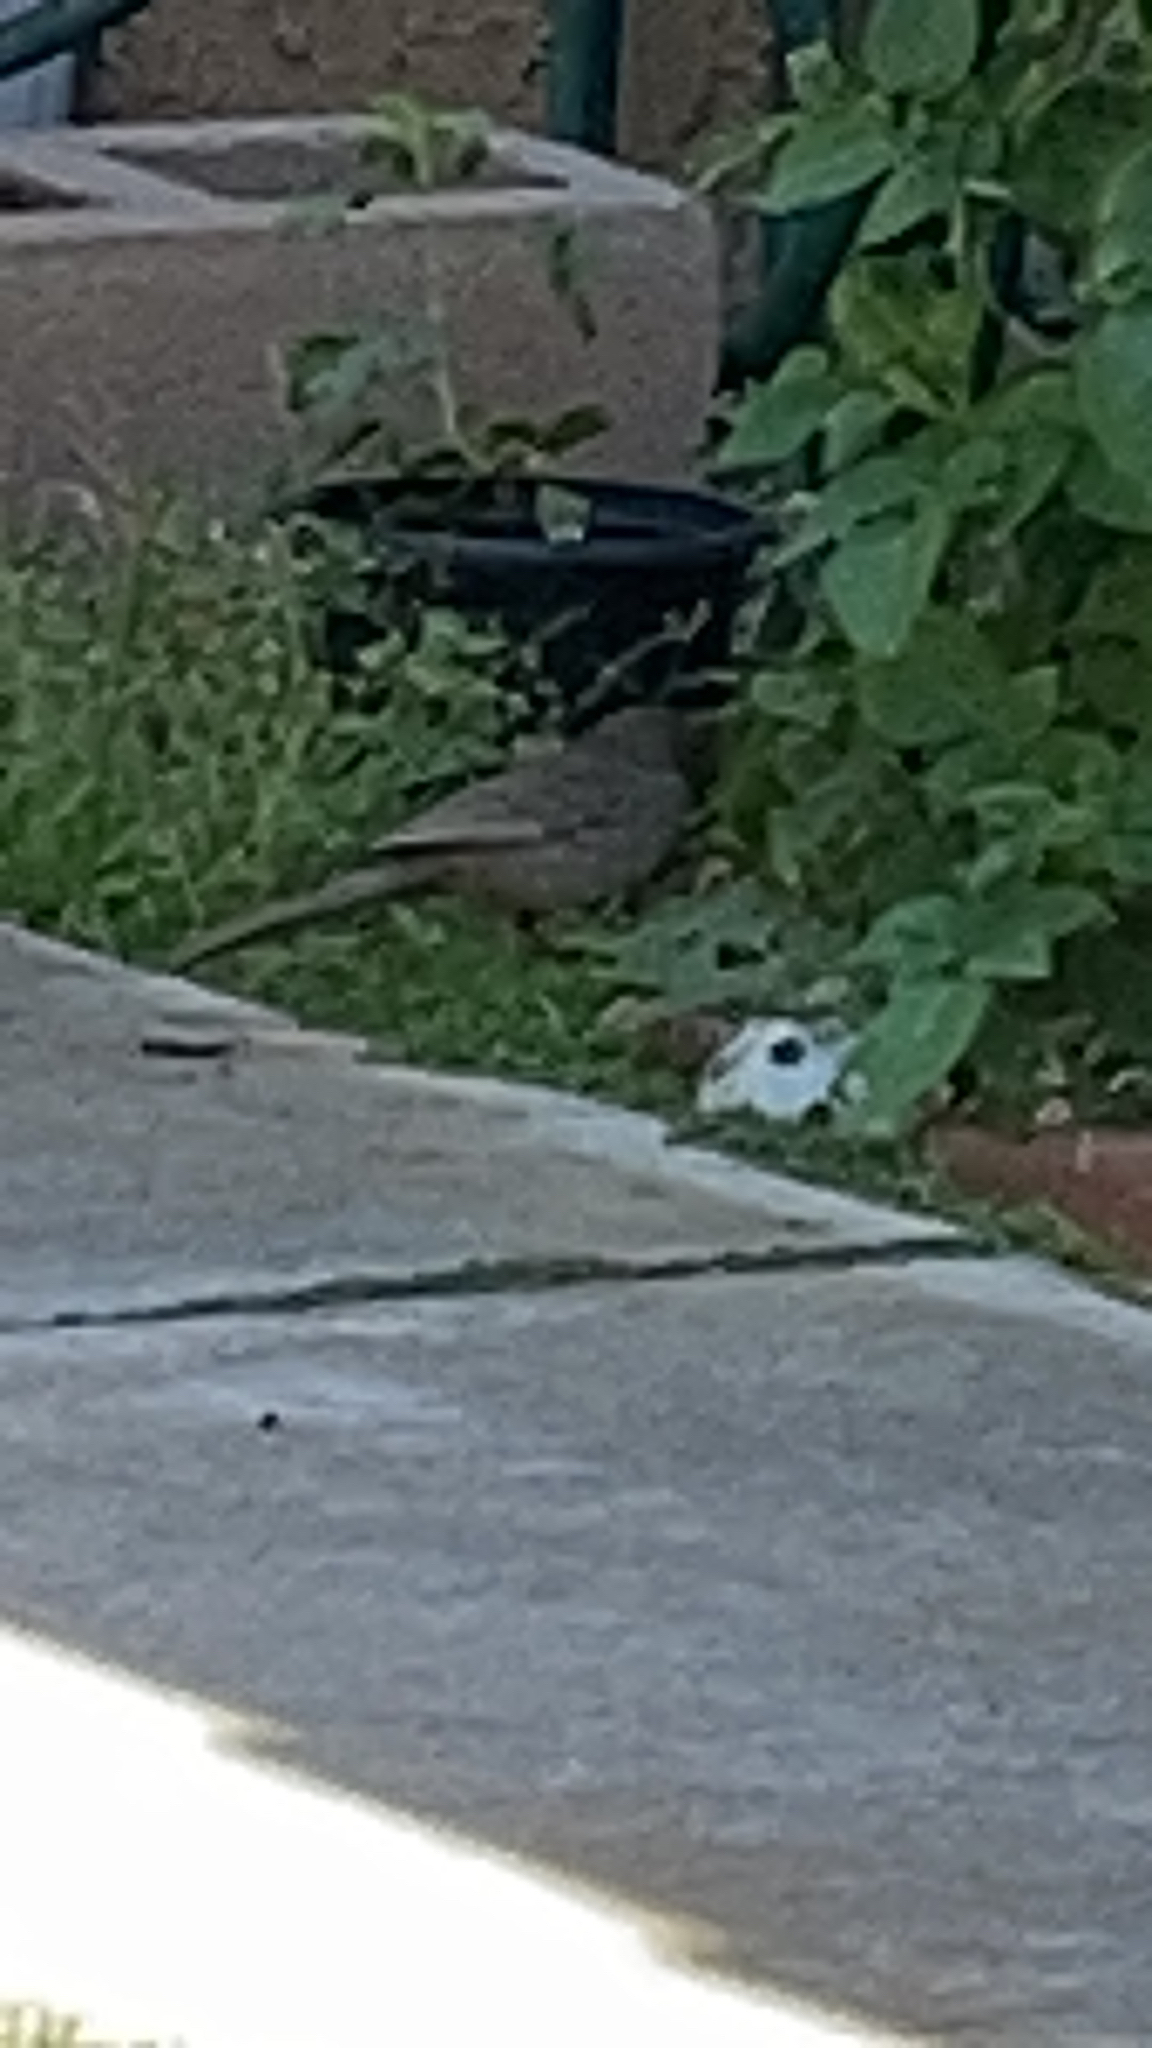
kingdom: Animalia
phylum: Chordata
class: Aves
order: Passeriformes
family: Passerellidae
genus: Melozone
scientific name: Melozone crissalis
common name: California towhee
